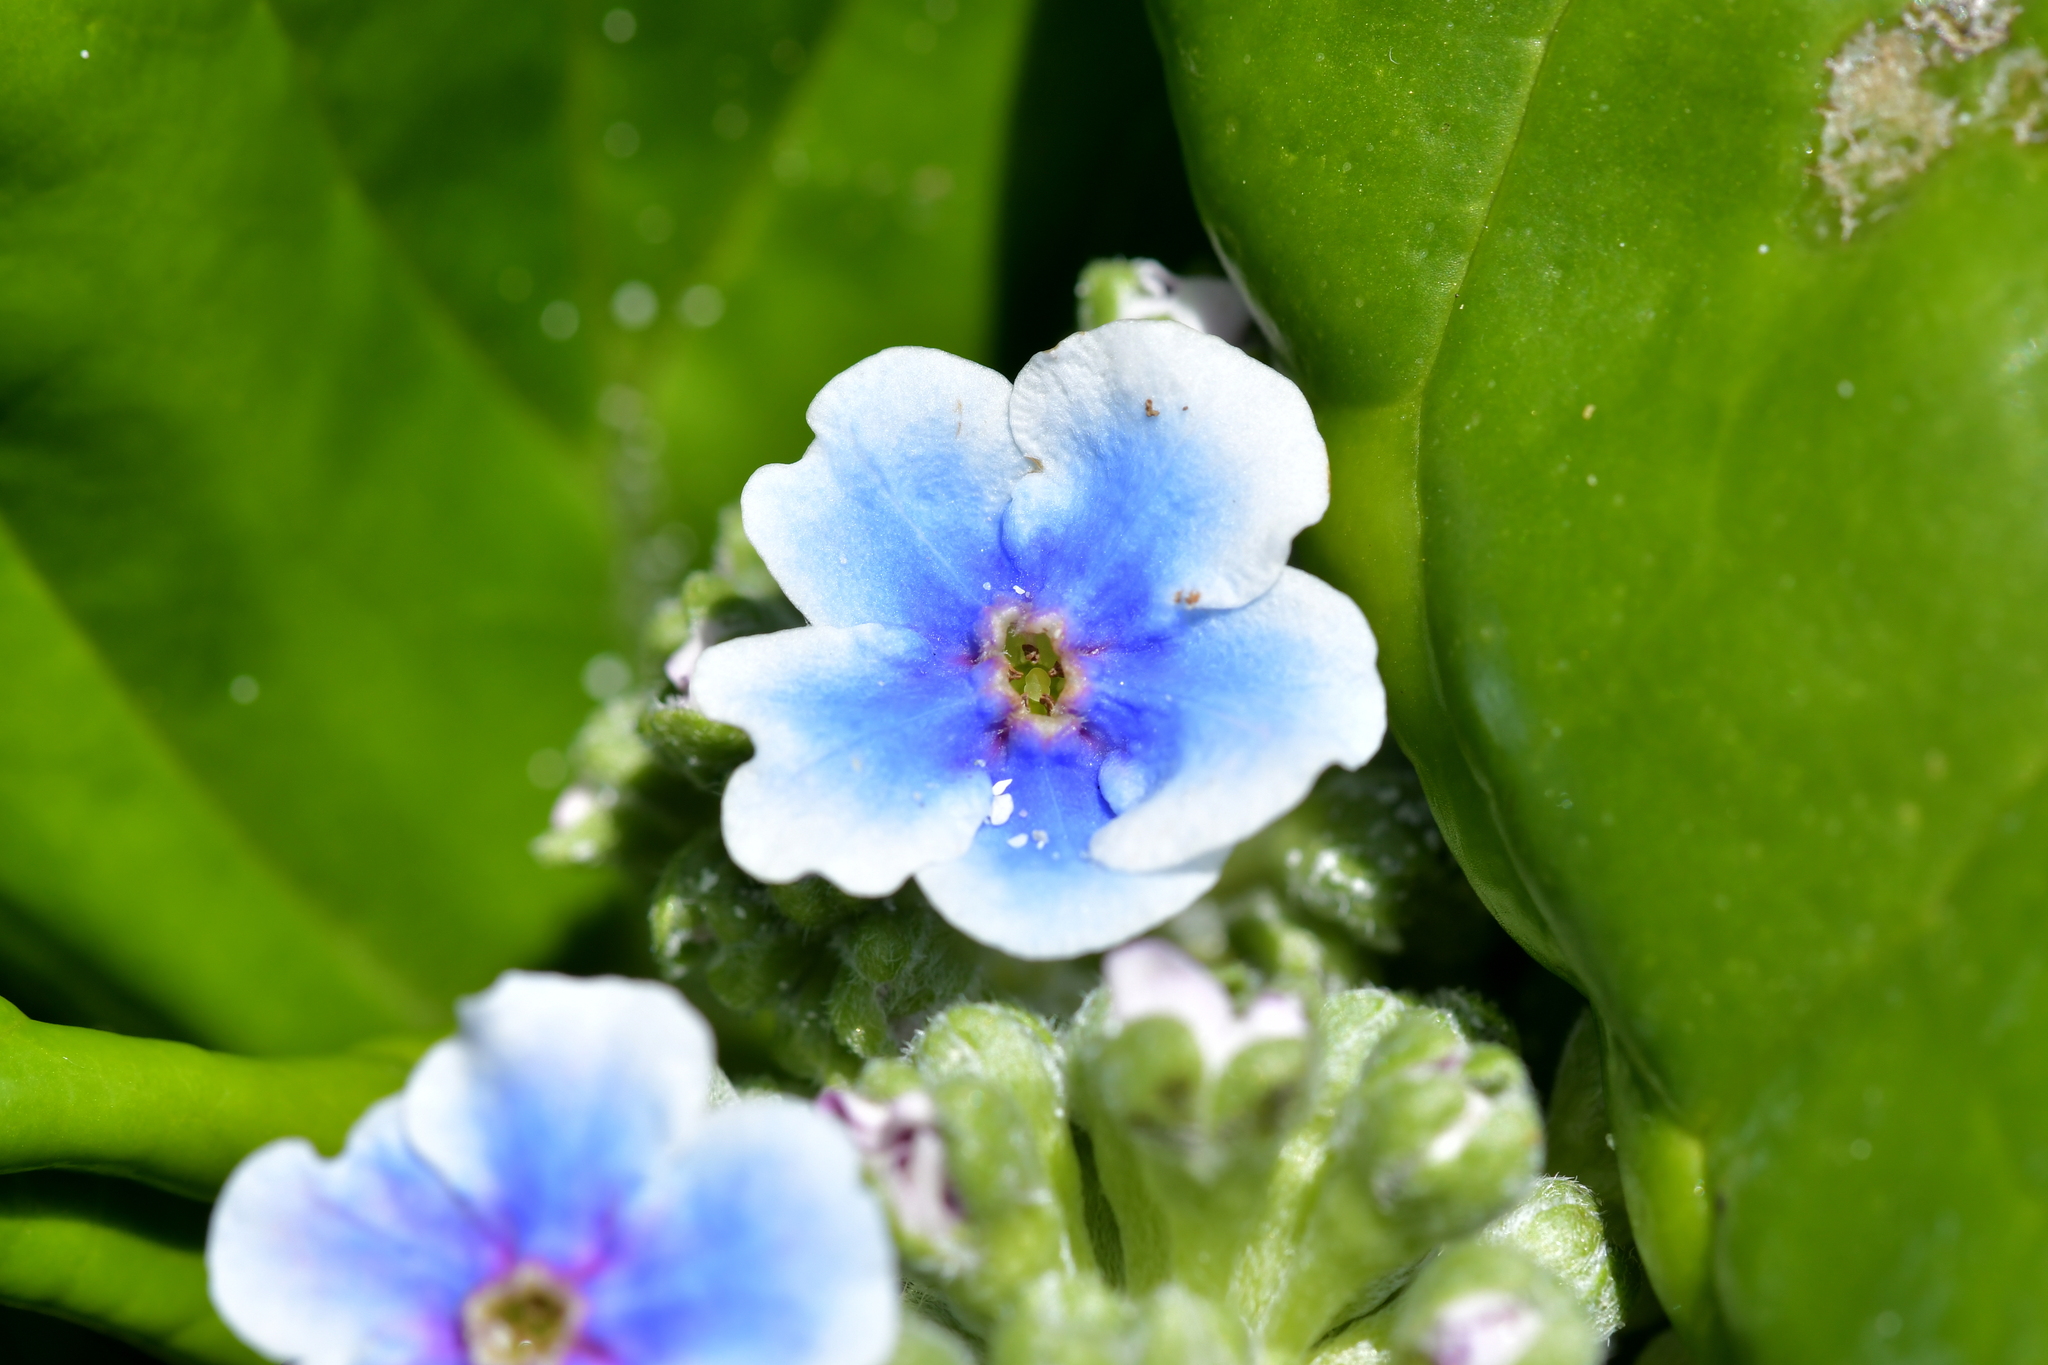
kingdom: Plantae
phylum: Tracheophyta
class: Magnoliopsida
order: Boraginales
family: Boraginaceae
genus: Myosotidium
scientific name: Myosotidium hortensia
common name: Giant forget-me-not
